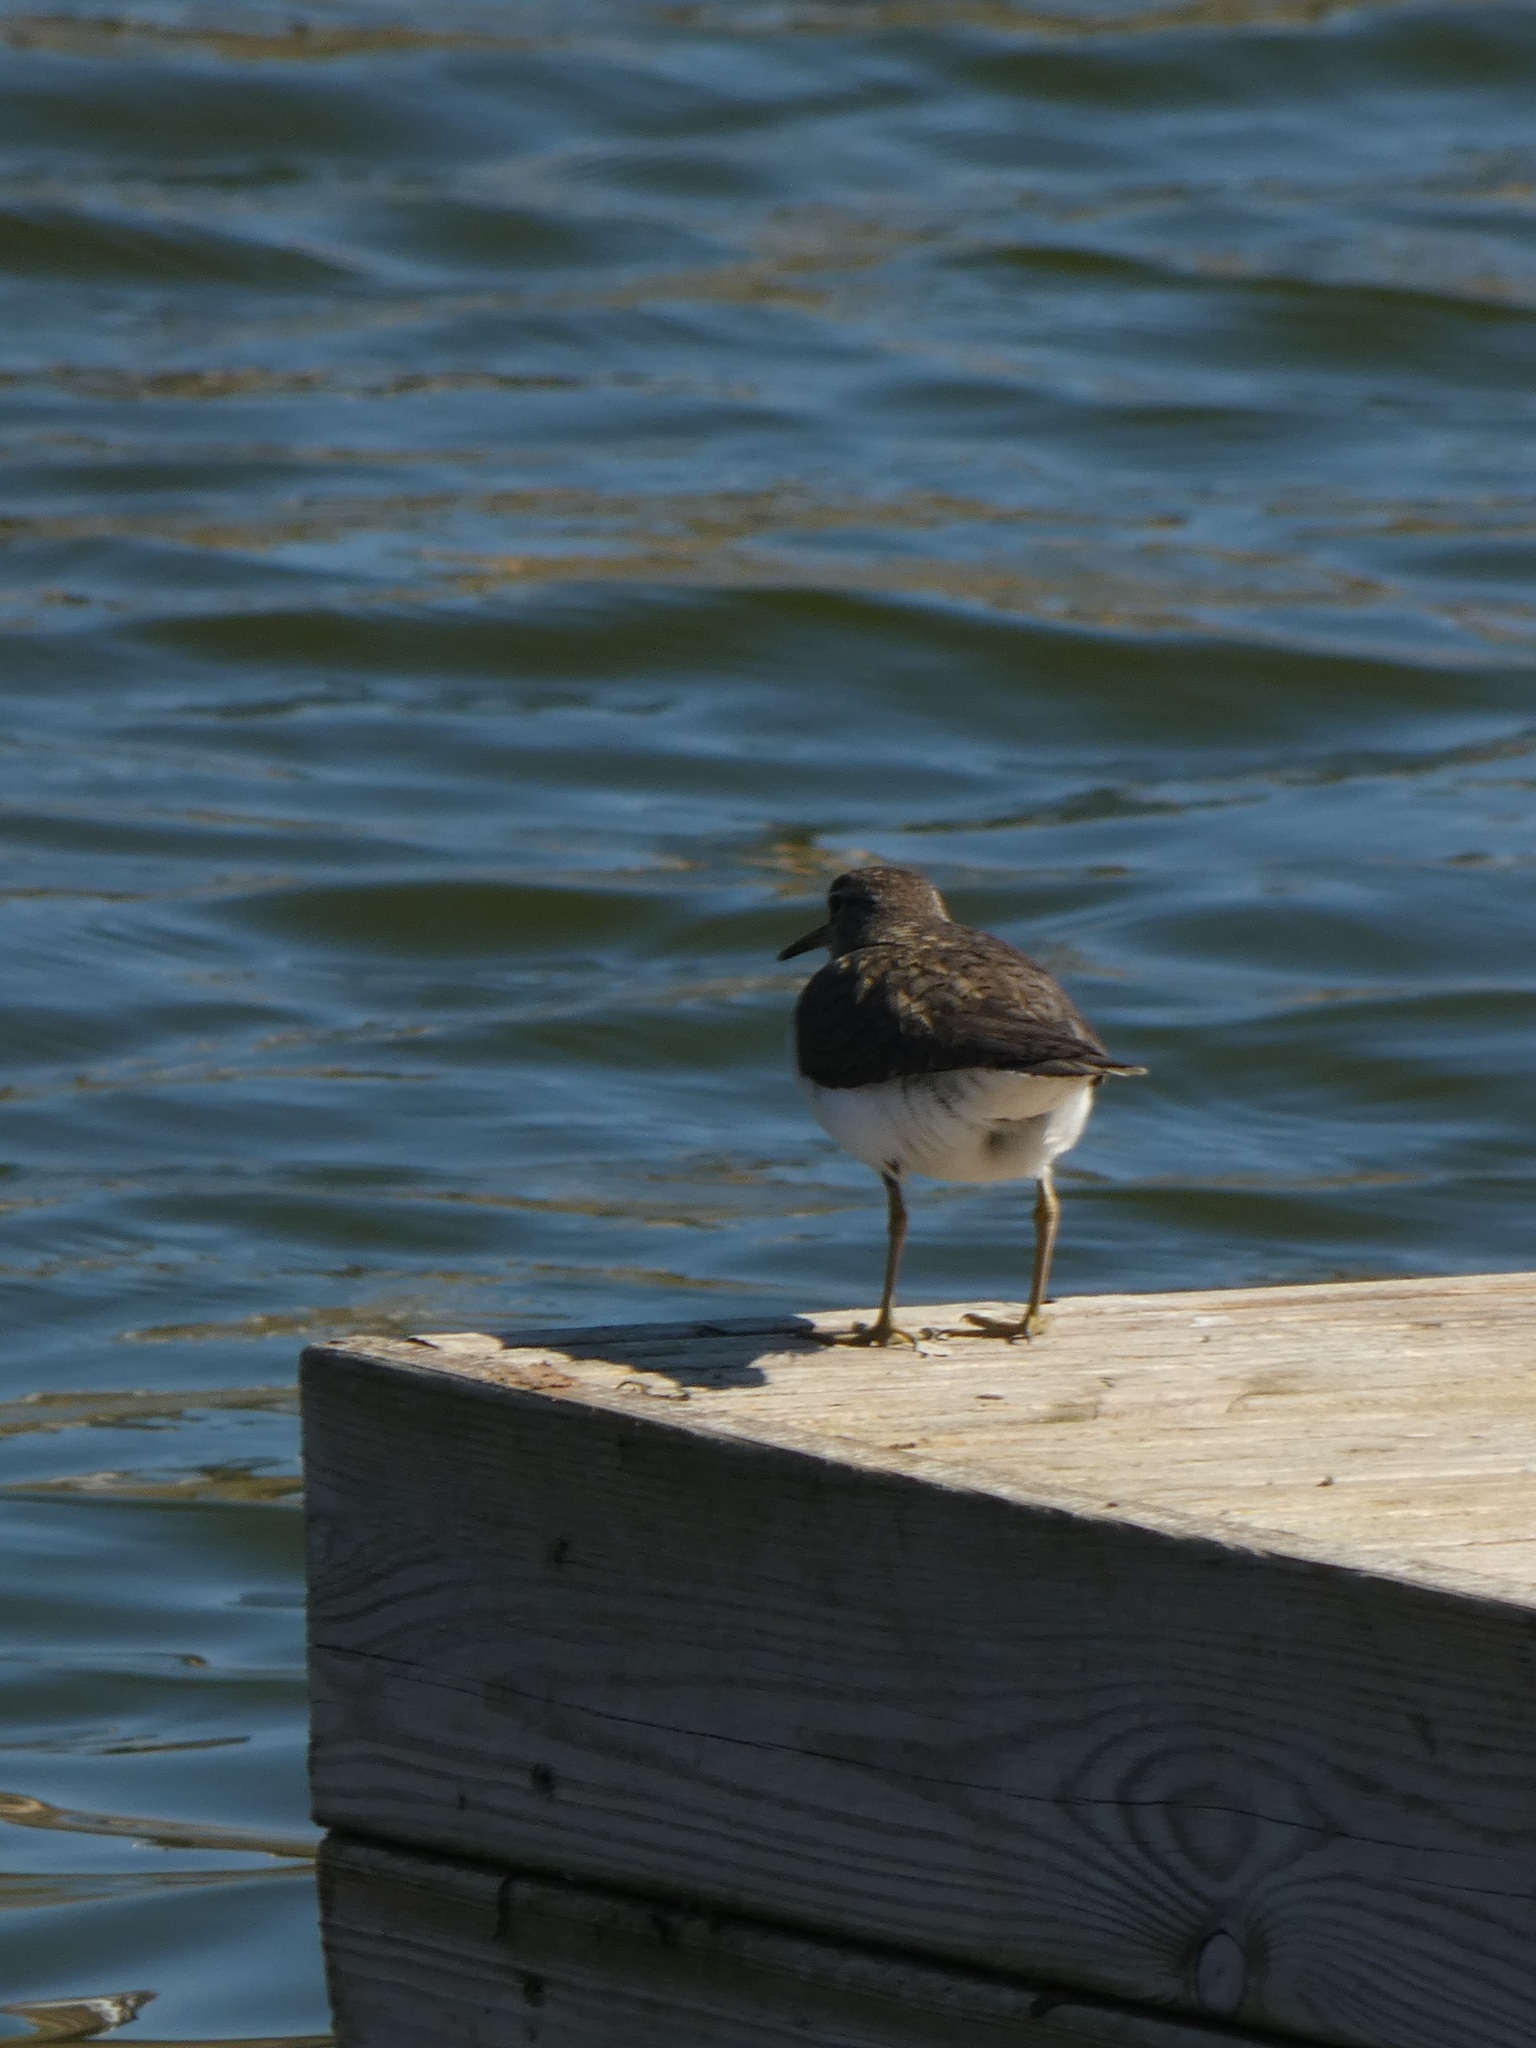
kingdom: Animalia
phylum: Chordata
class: Aves
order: Charadriiformes
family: Scolopacidae
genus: Actitis
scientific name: Actitis hypoleucos
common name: Common sandpiper
